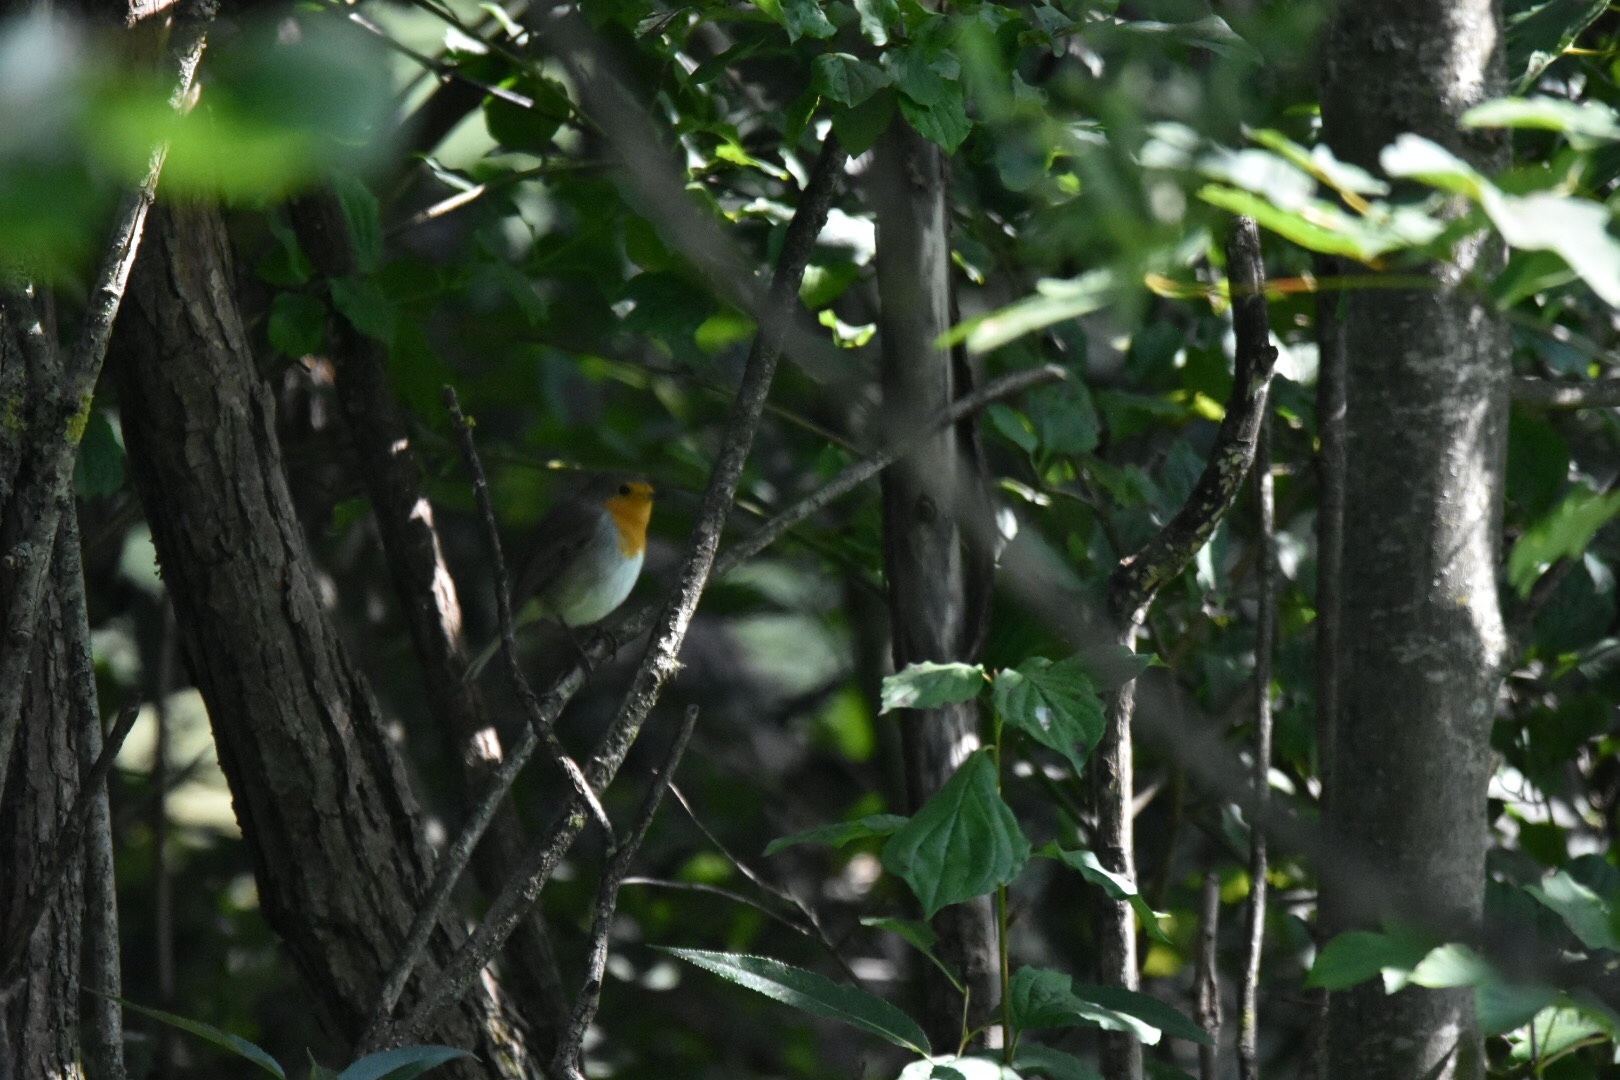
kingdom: Animalia
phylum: Chordata
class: Aves
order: Passeriformes
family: Muscicapidae
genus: Erithacus
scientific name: Erithacus rubecula
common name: European robin
